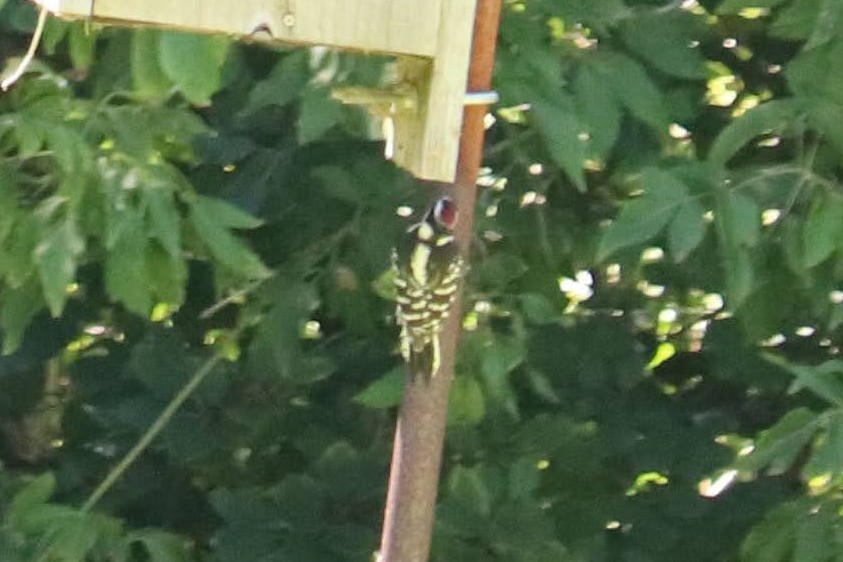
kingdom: Animalia
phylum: Chordata
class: Aves
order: Piciformes
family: Picidae
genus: Sphyrapicus
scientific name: Sphyrapicus varius
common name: Yellow-bellied sapsucker
